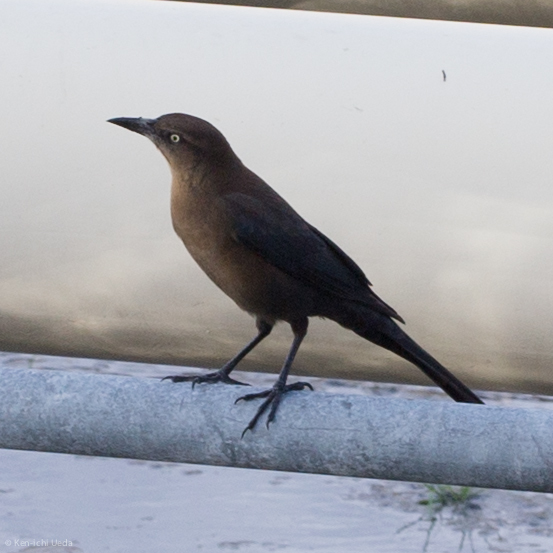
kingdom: Animalia
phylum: Chordata
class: Aves
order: Passeriformes
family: Icteridae
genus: Quiscalus
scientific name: Quiscalus mexicanus
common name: Great-tailed grackle
